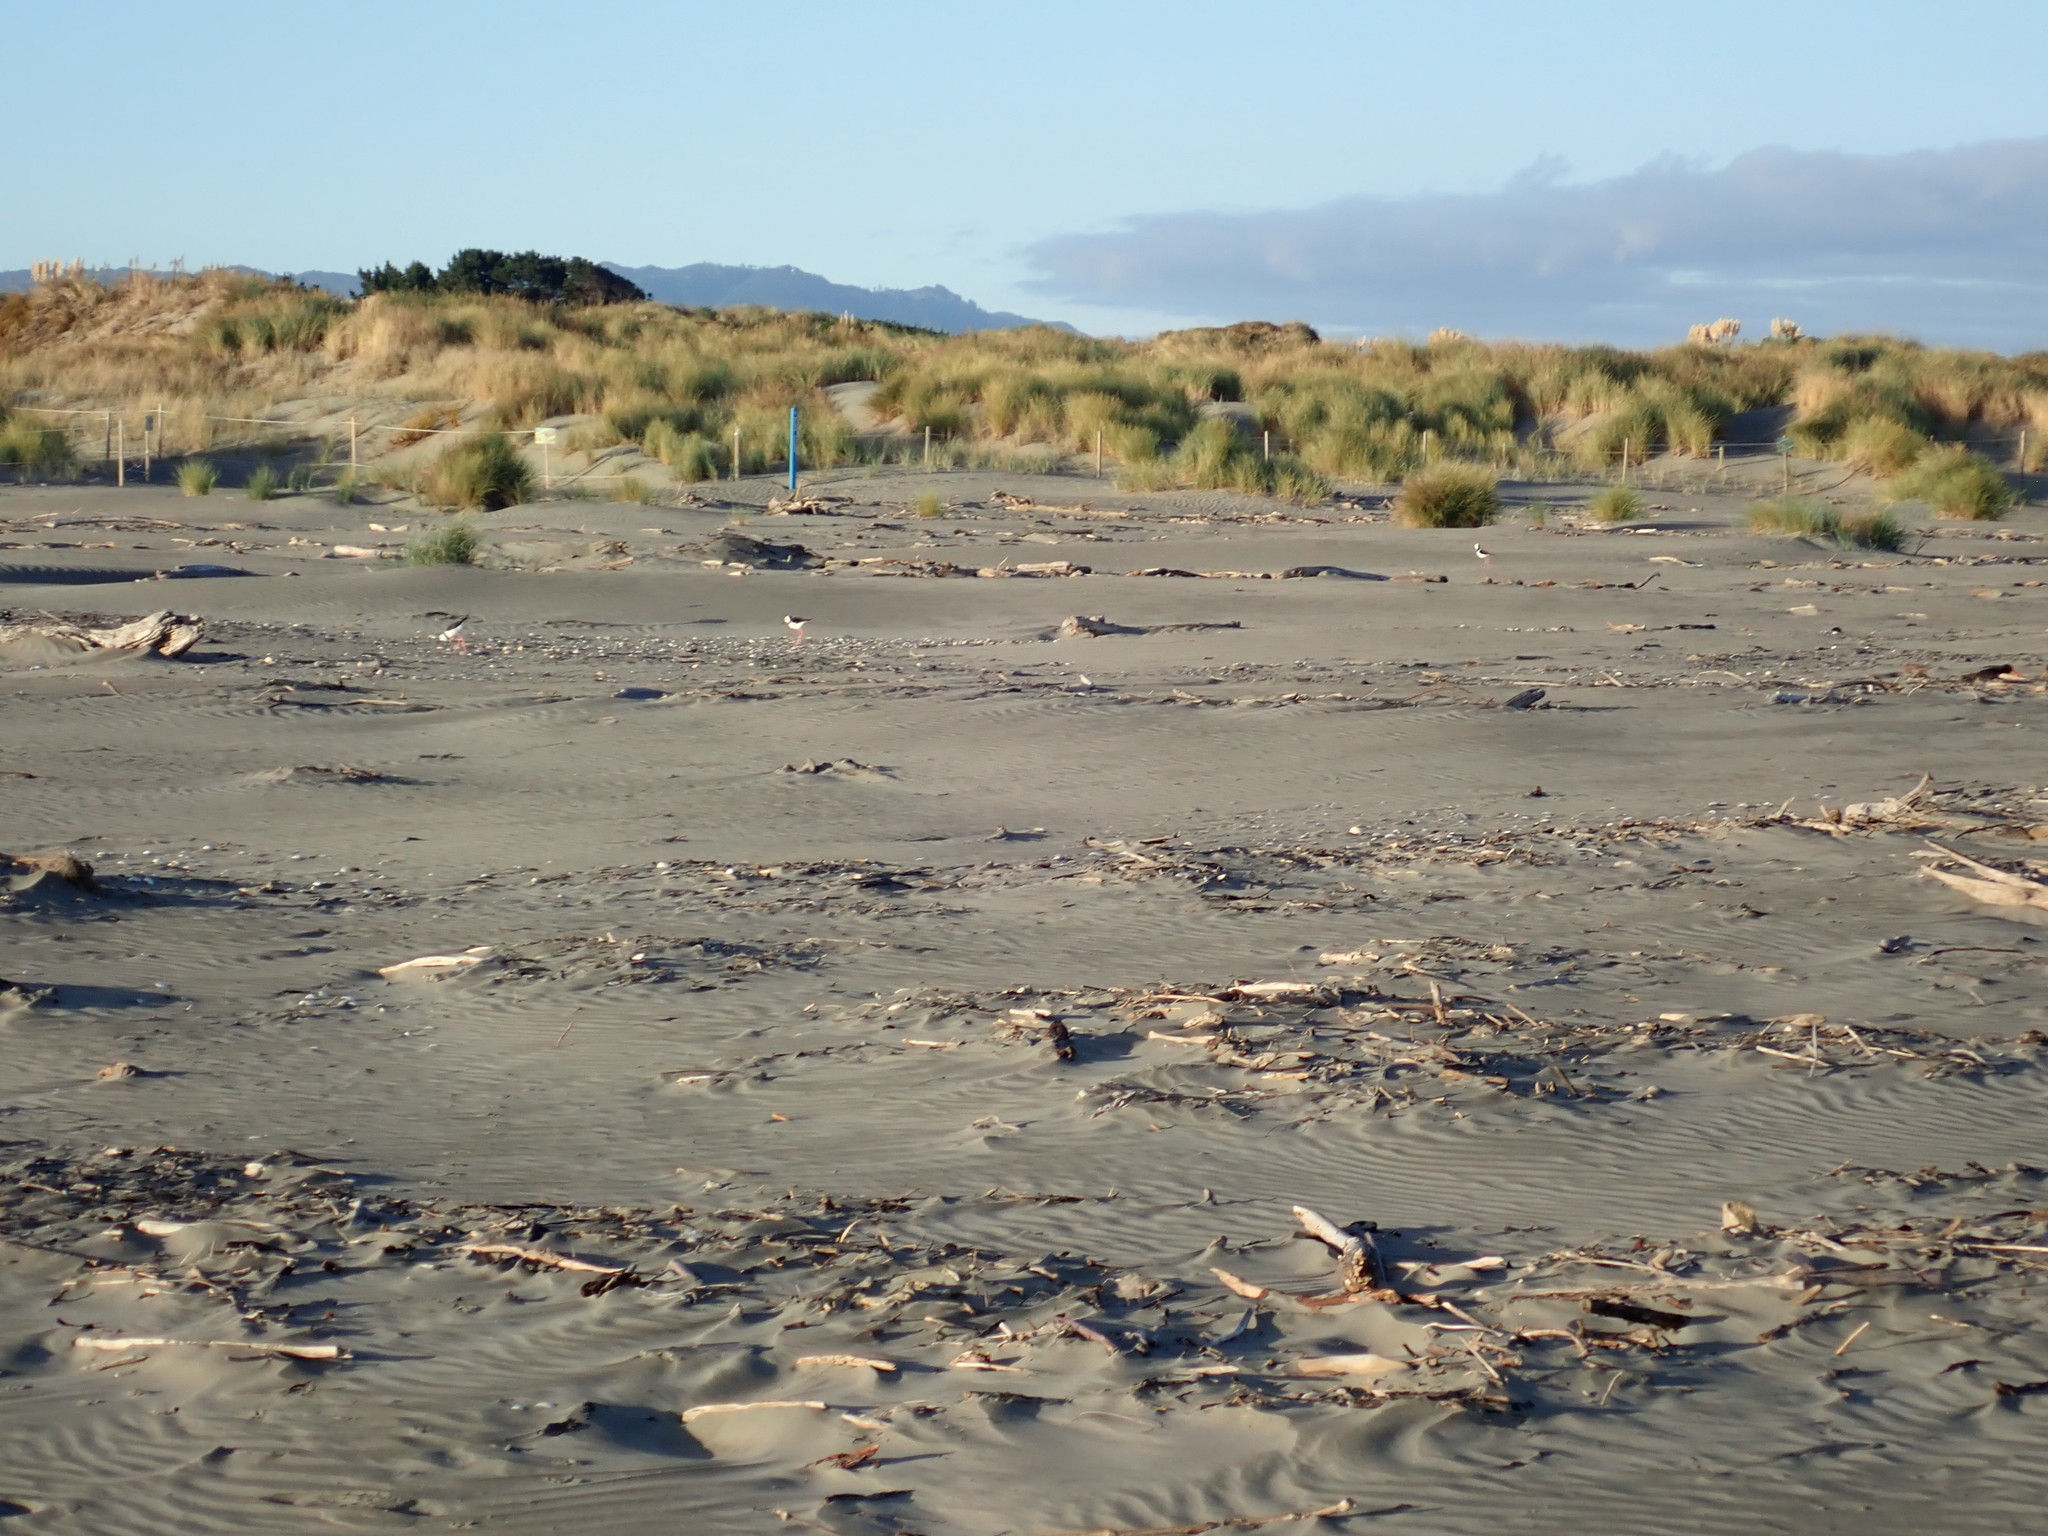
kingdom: Animalia
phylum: Chordata
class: Aves
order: Charadriiformes
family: Recurvirostridae
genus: Himantopus
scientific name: Himantopus leucocephalus
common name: White-headed stilt
